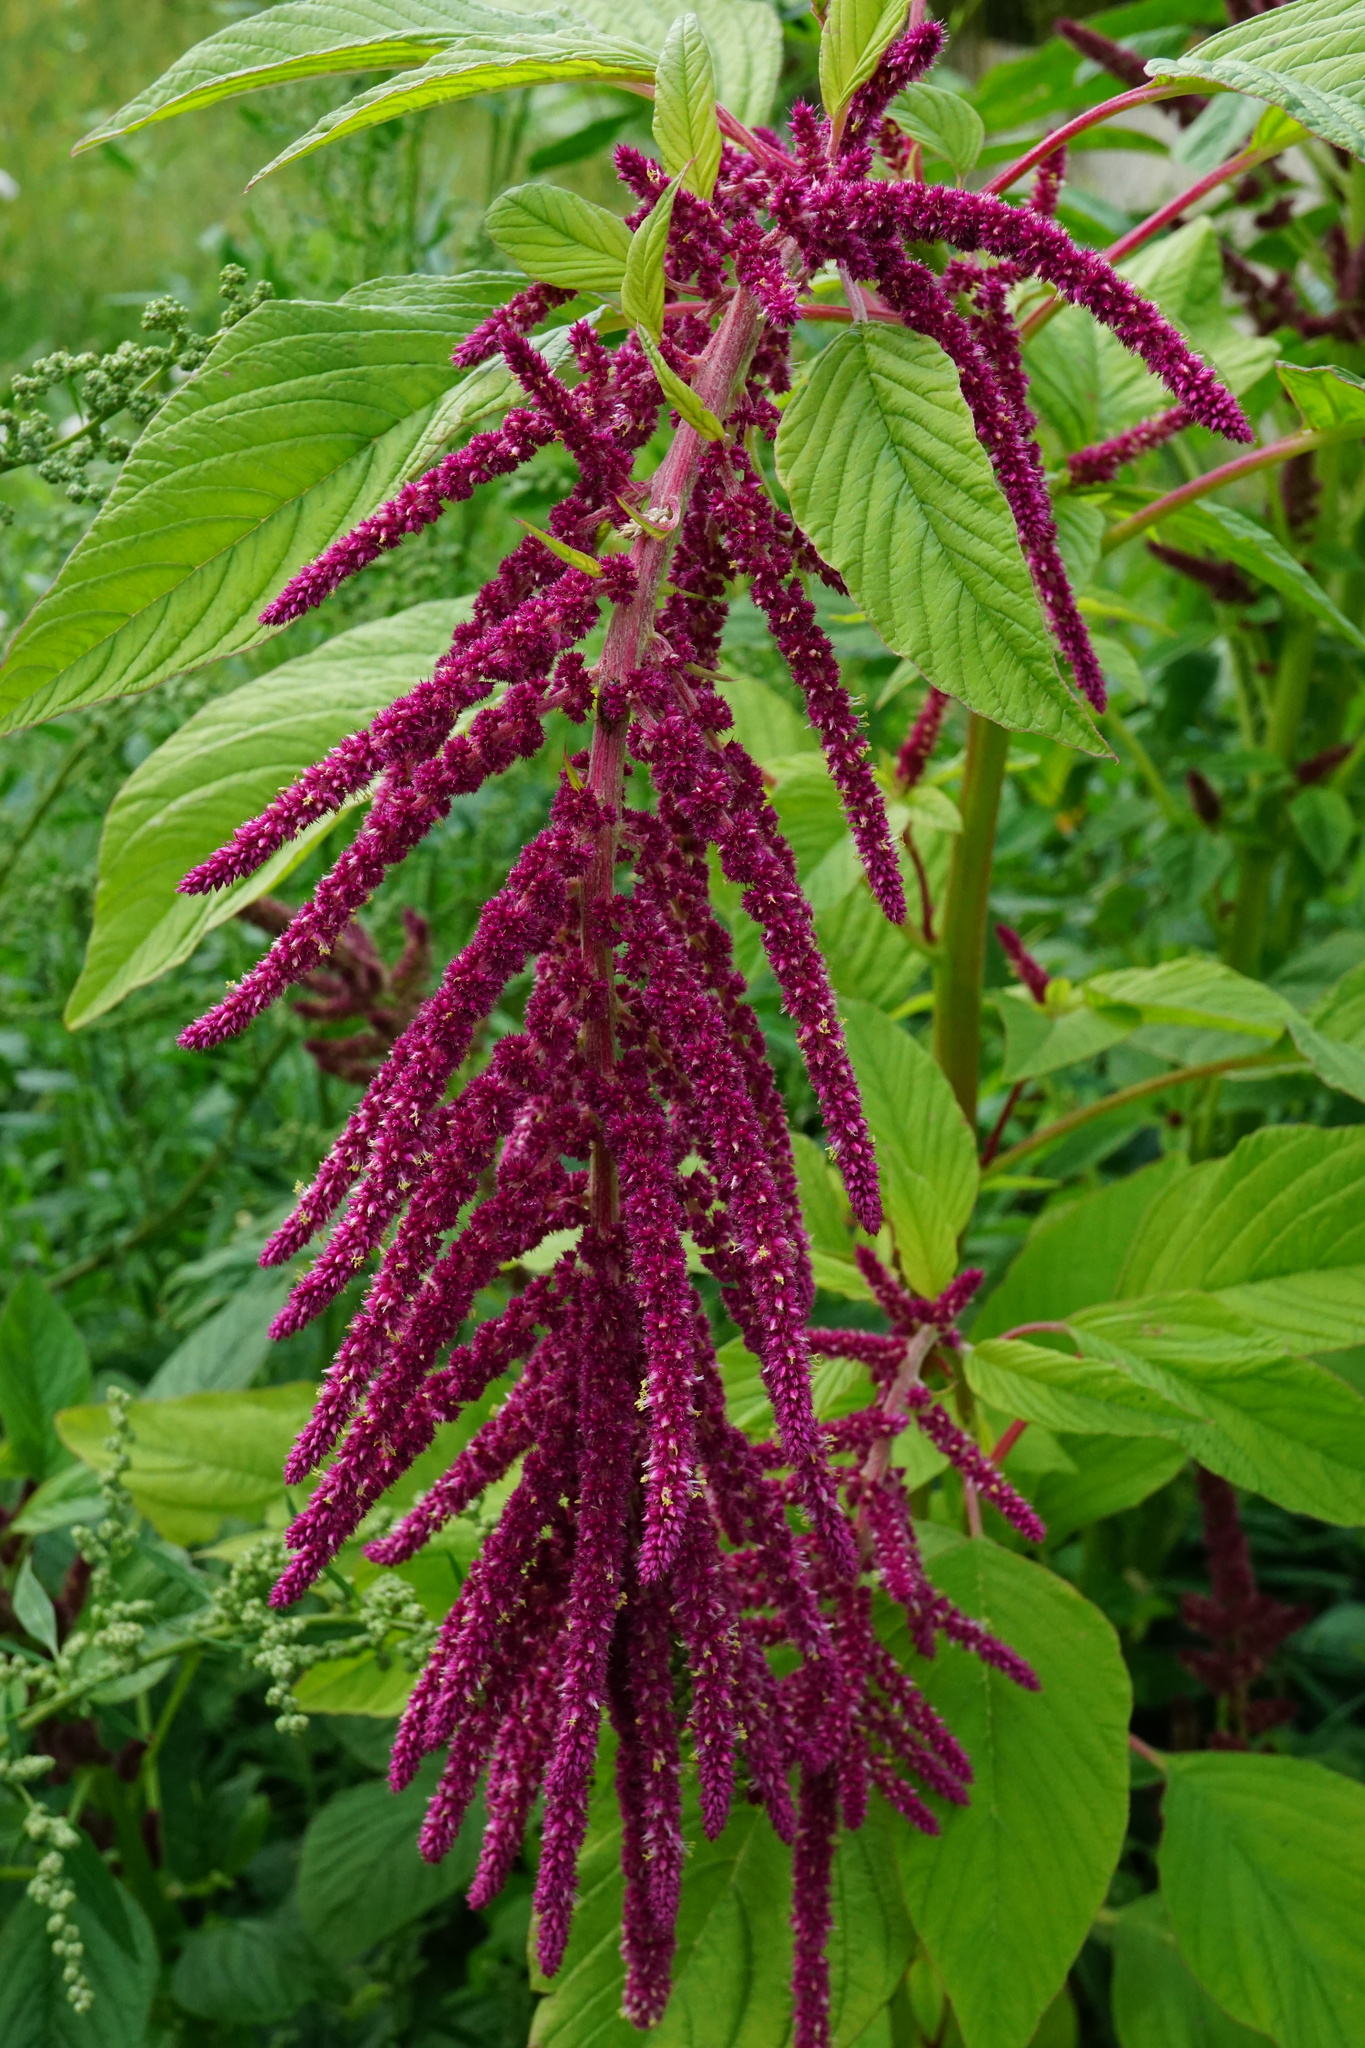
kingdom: Plantae
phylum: Tracheophyta
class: Magnoliopsida
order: Caryophyllales
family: Amaranthaceae
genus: Amaranthus
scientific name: Amaranthus cruentus
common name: Purple amaranth
